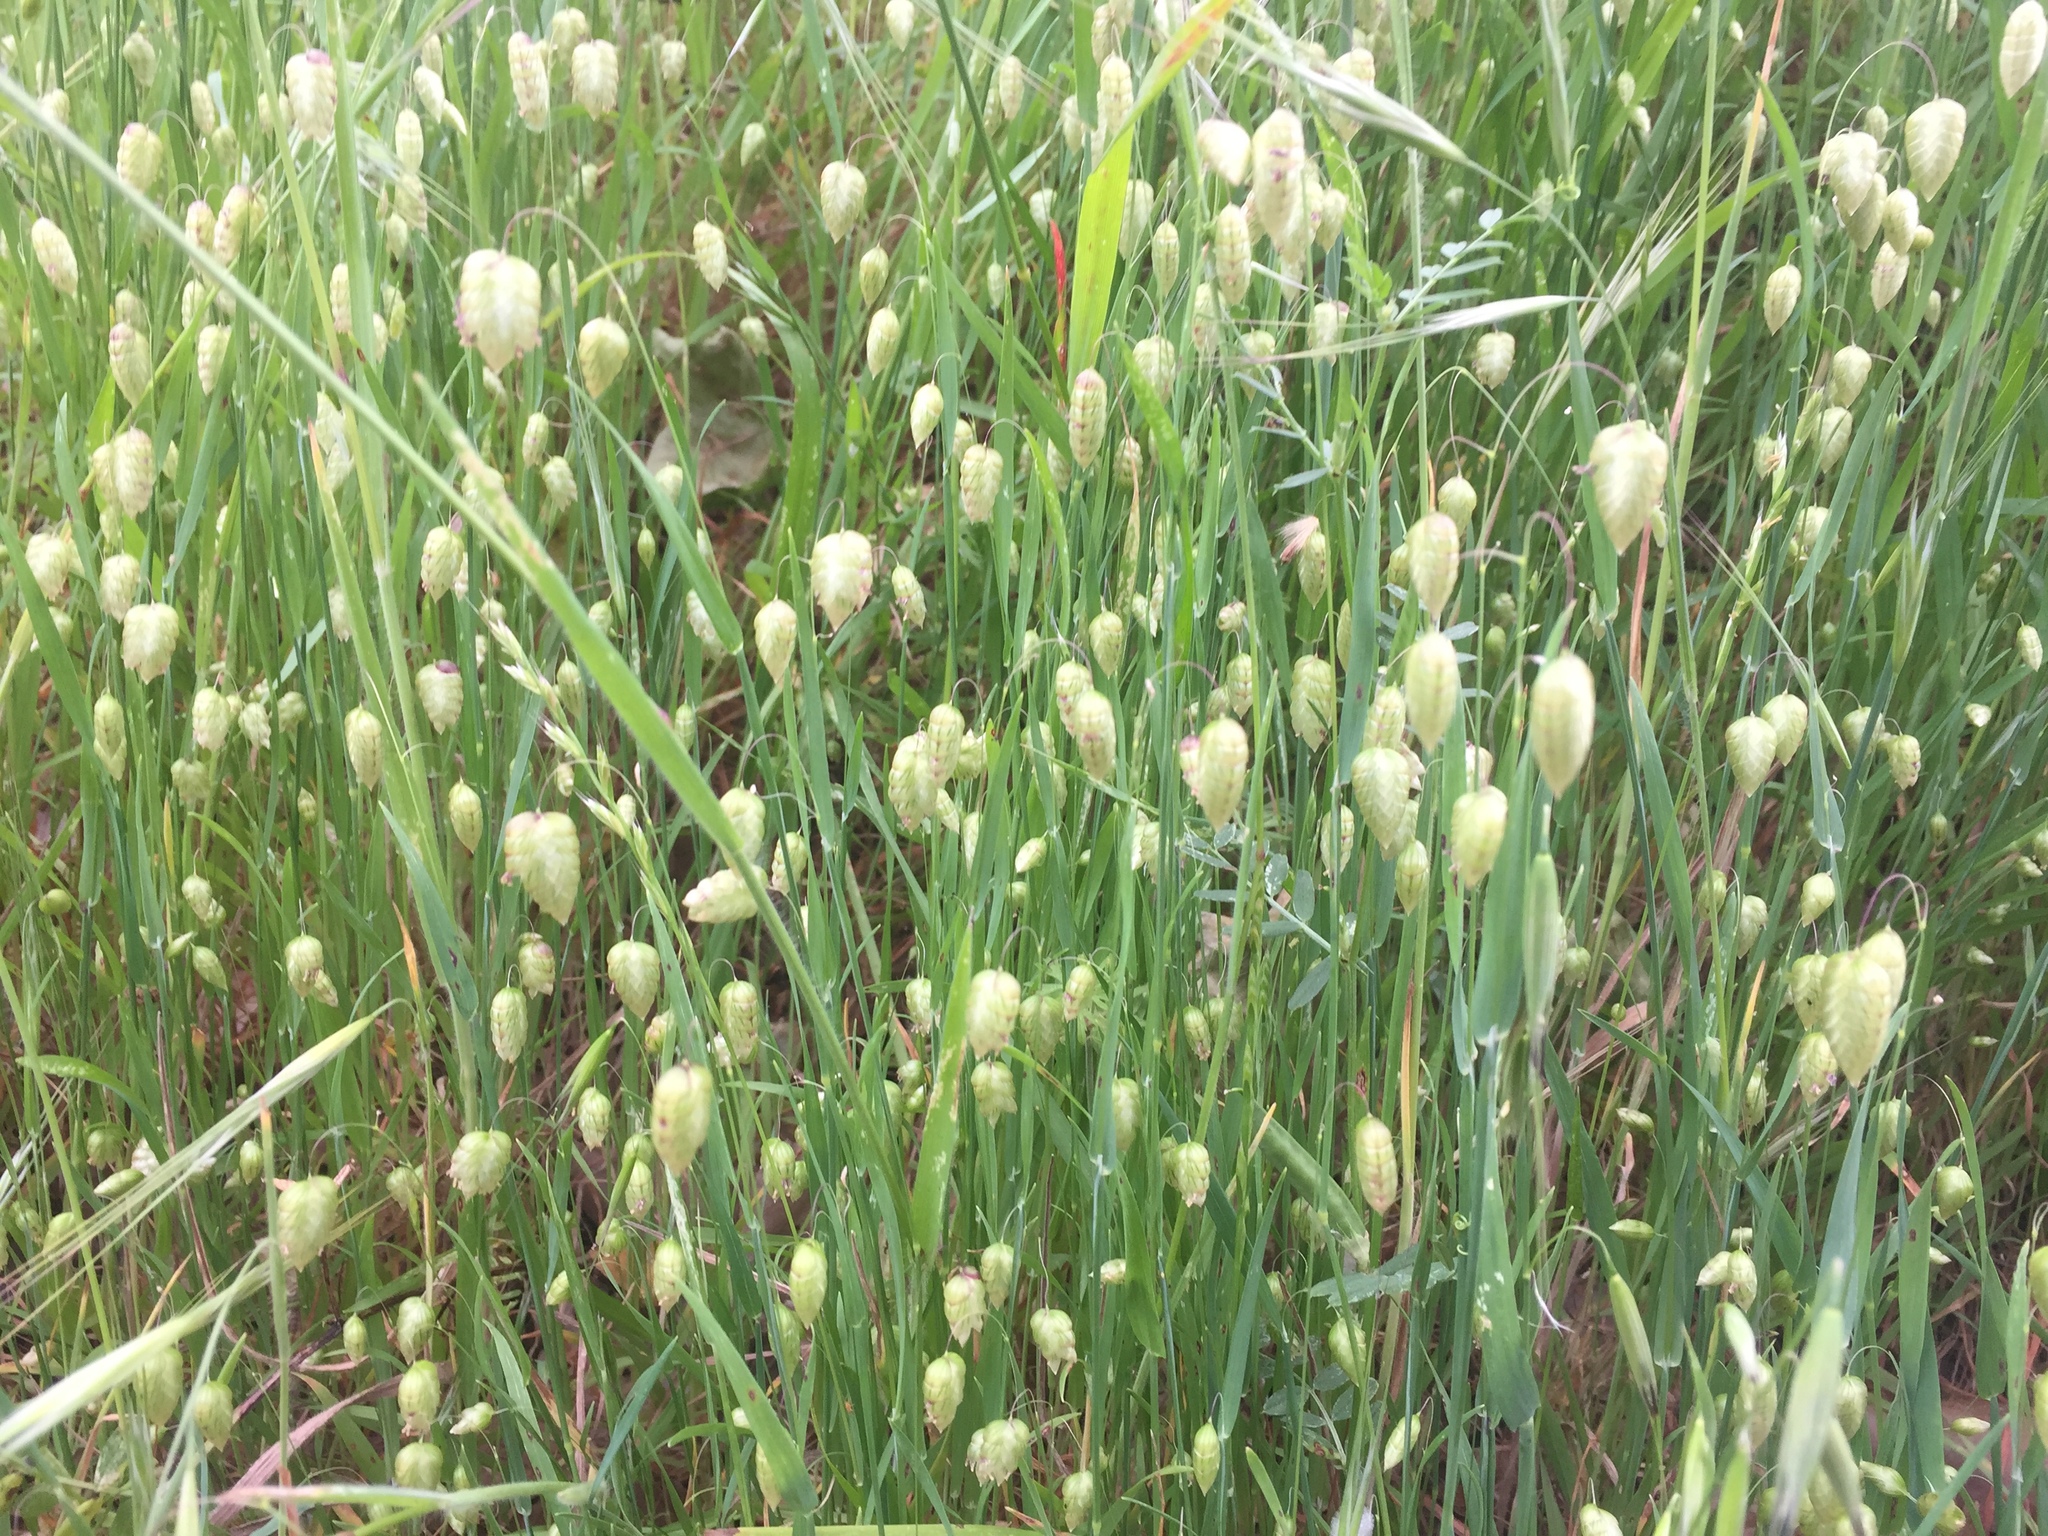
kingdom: Plantae
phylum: Tracheophyta
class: Liliopsida
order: Poales
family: Poaceae
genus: Briza
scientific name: Briza maxima
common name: Big quakinggrass
